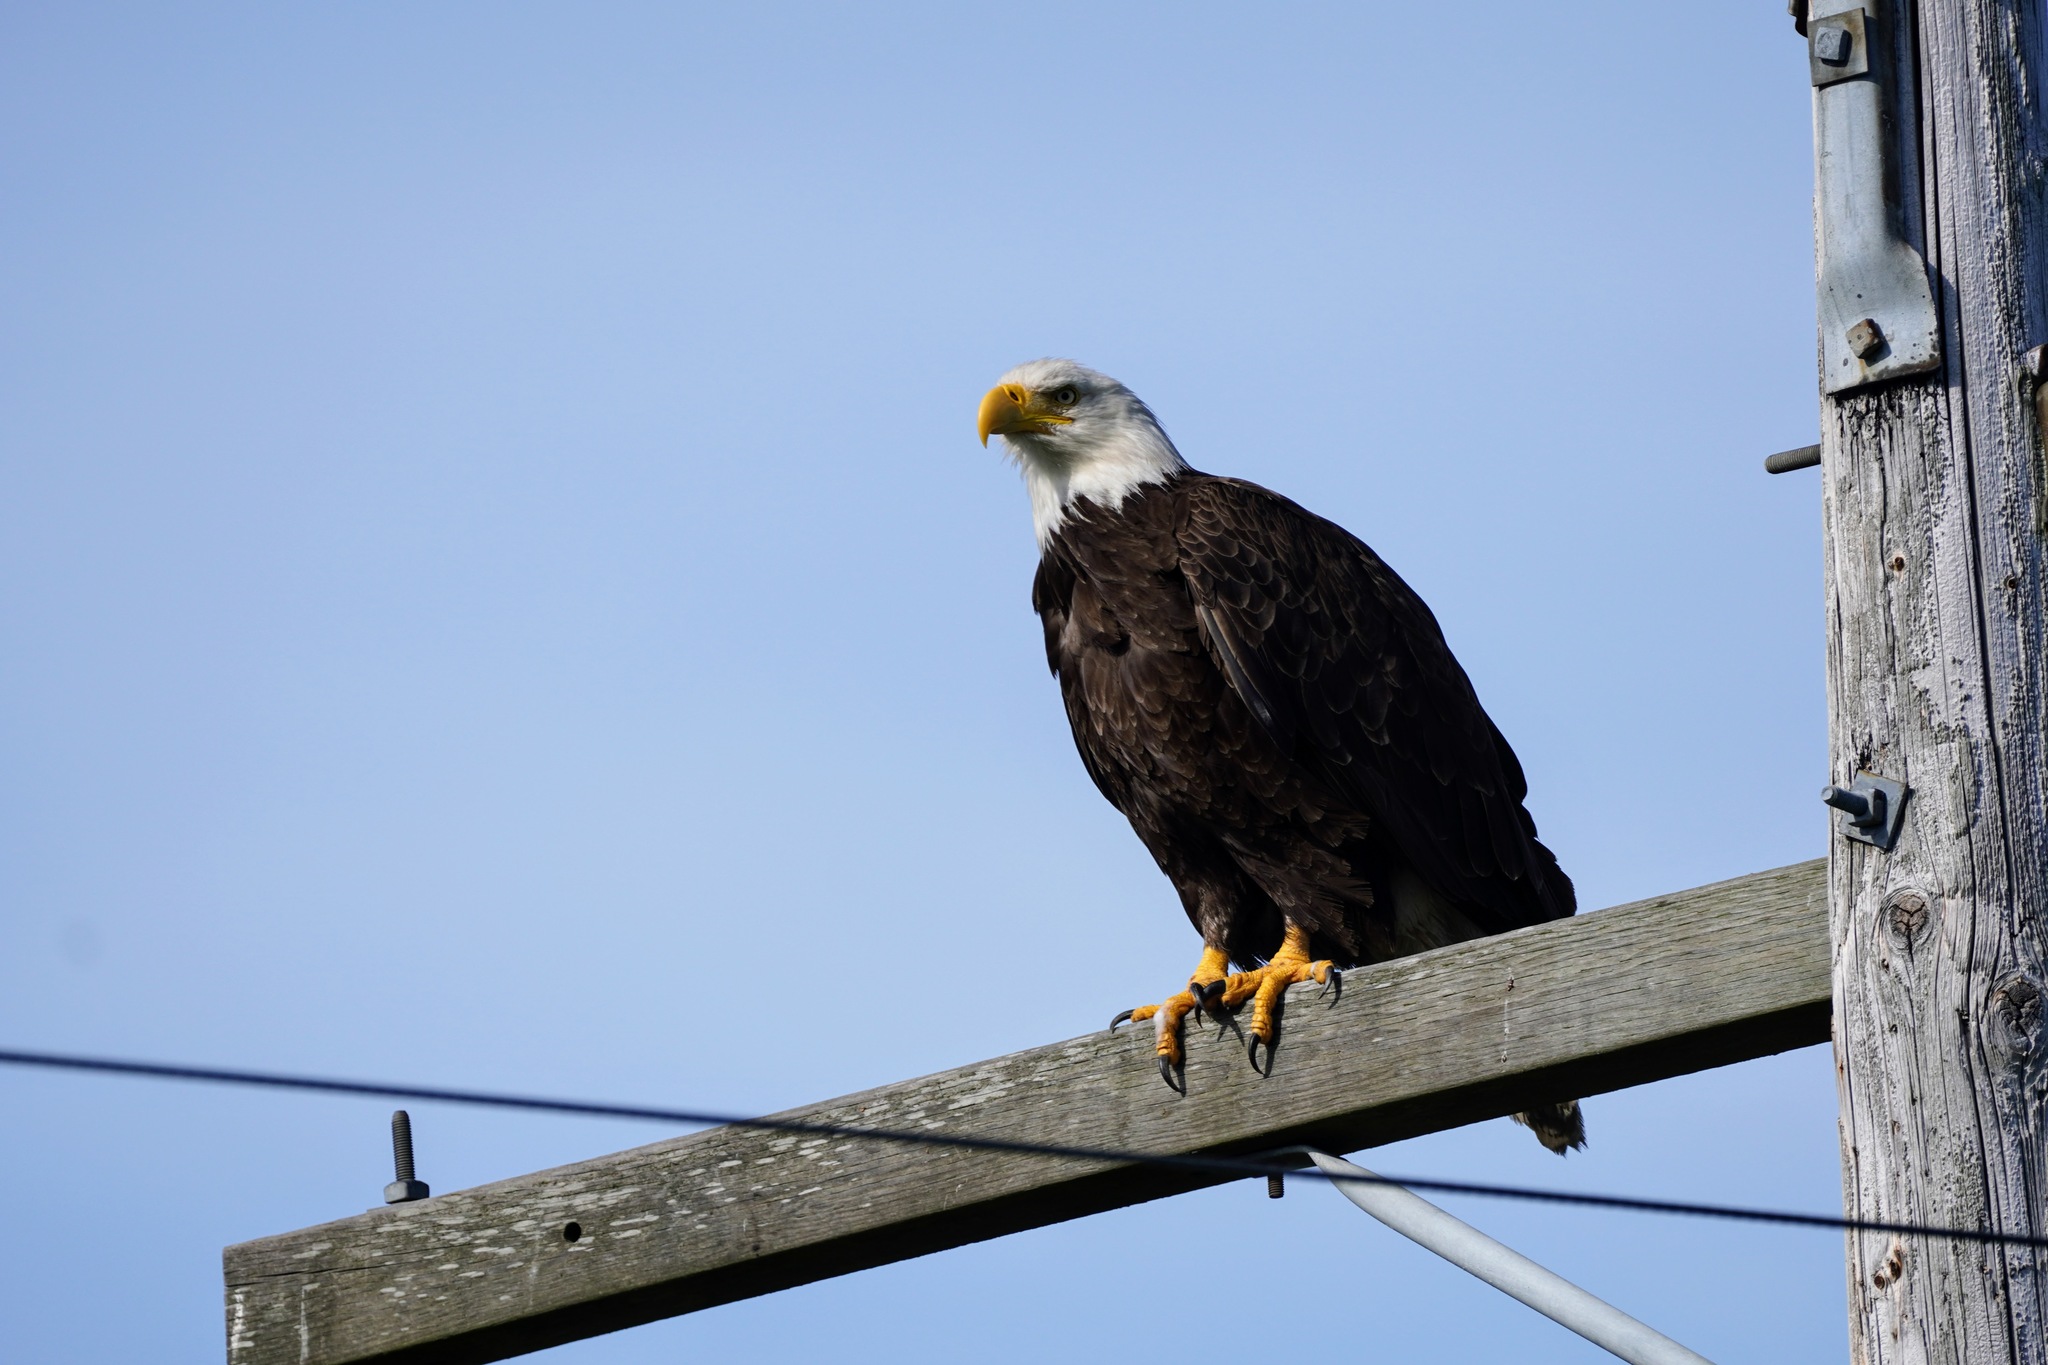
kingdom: Animalia
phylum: Chordata
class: Aves
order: Accipitriformes
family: Accipitridae
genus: Haliaeetus
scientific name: Haliaeetus leucocephalus
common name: Bald eagle
